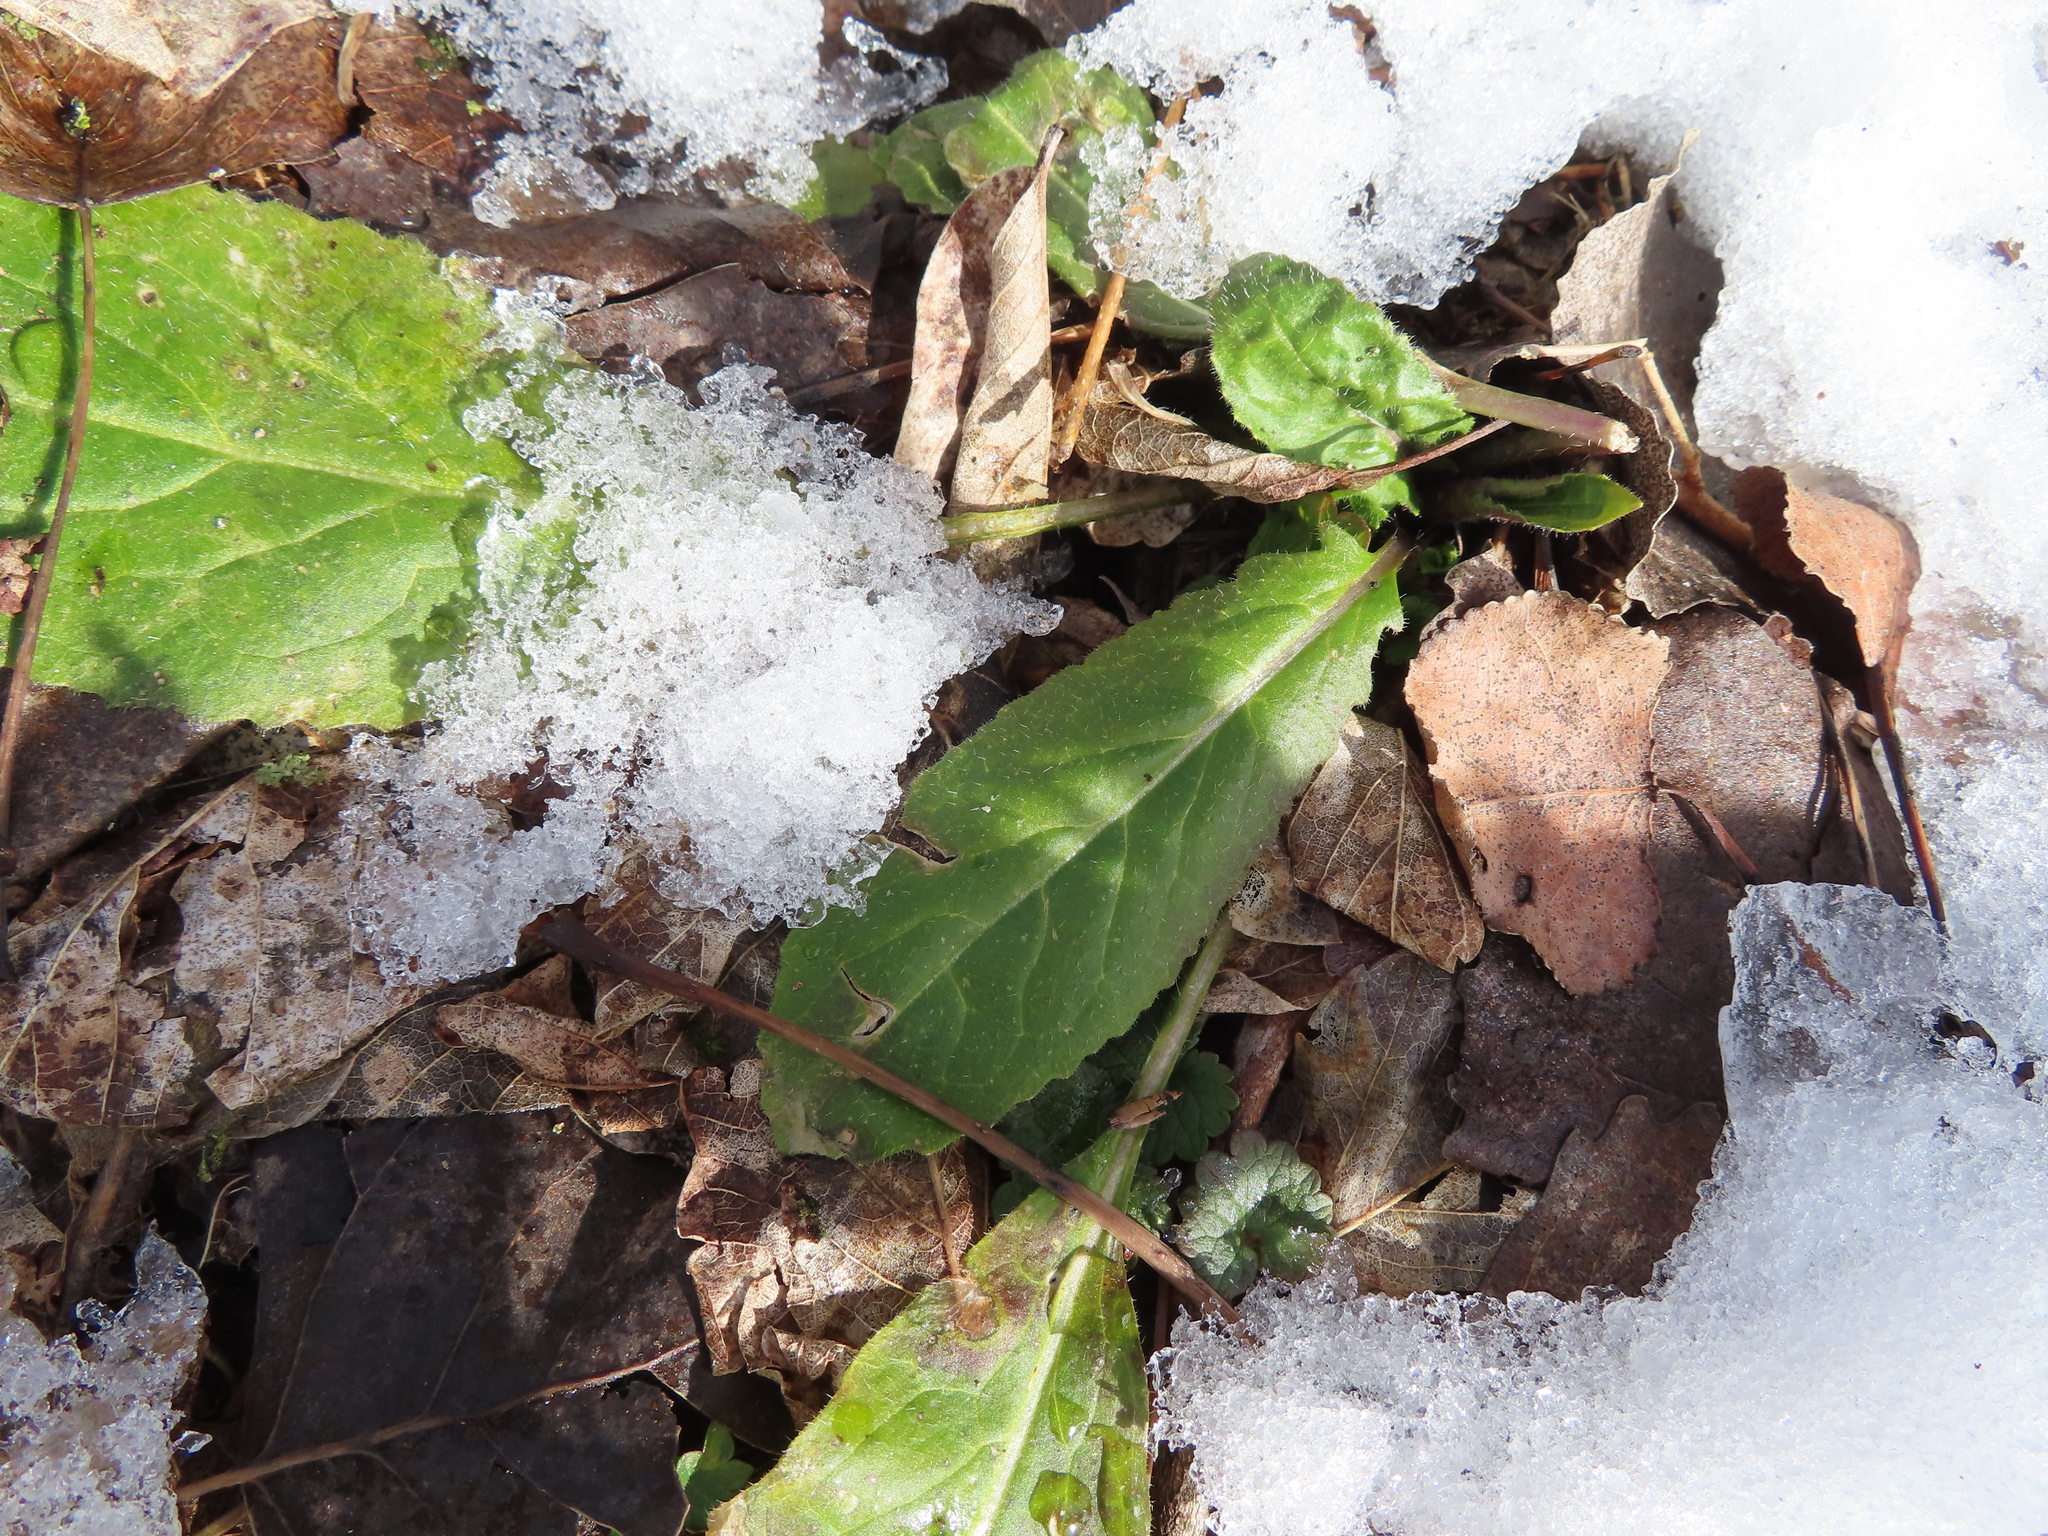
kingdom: Plantae
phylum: Tracheophyta
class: Magnoliopsida
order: Brassicales
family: Brassicaceae
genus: Hesperis
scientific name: Hesperis matronalis
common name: Dame's-violet
